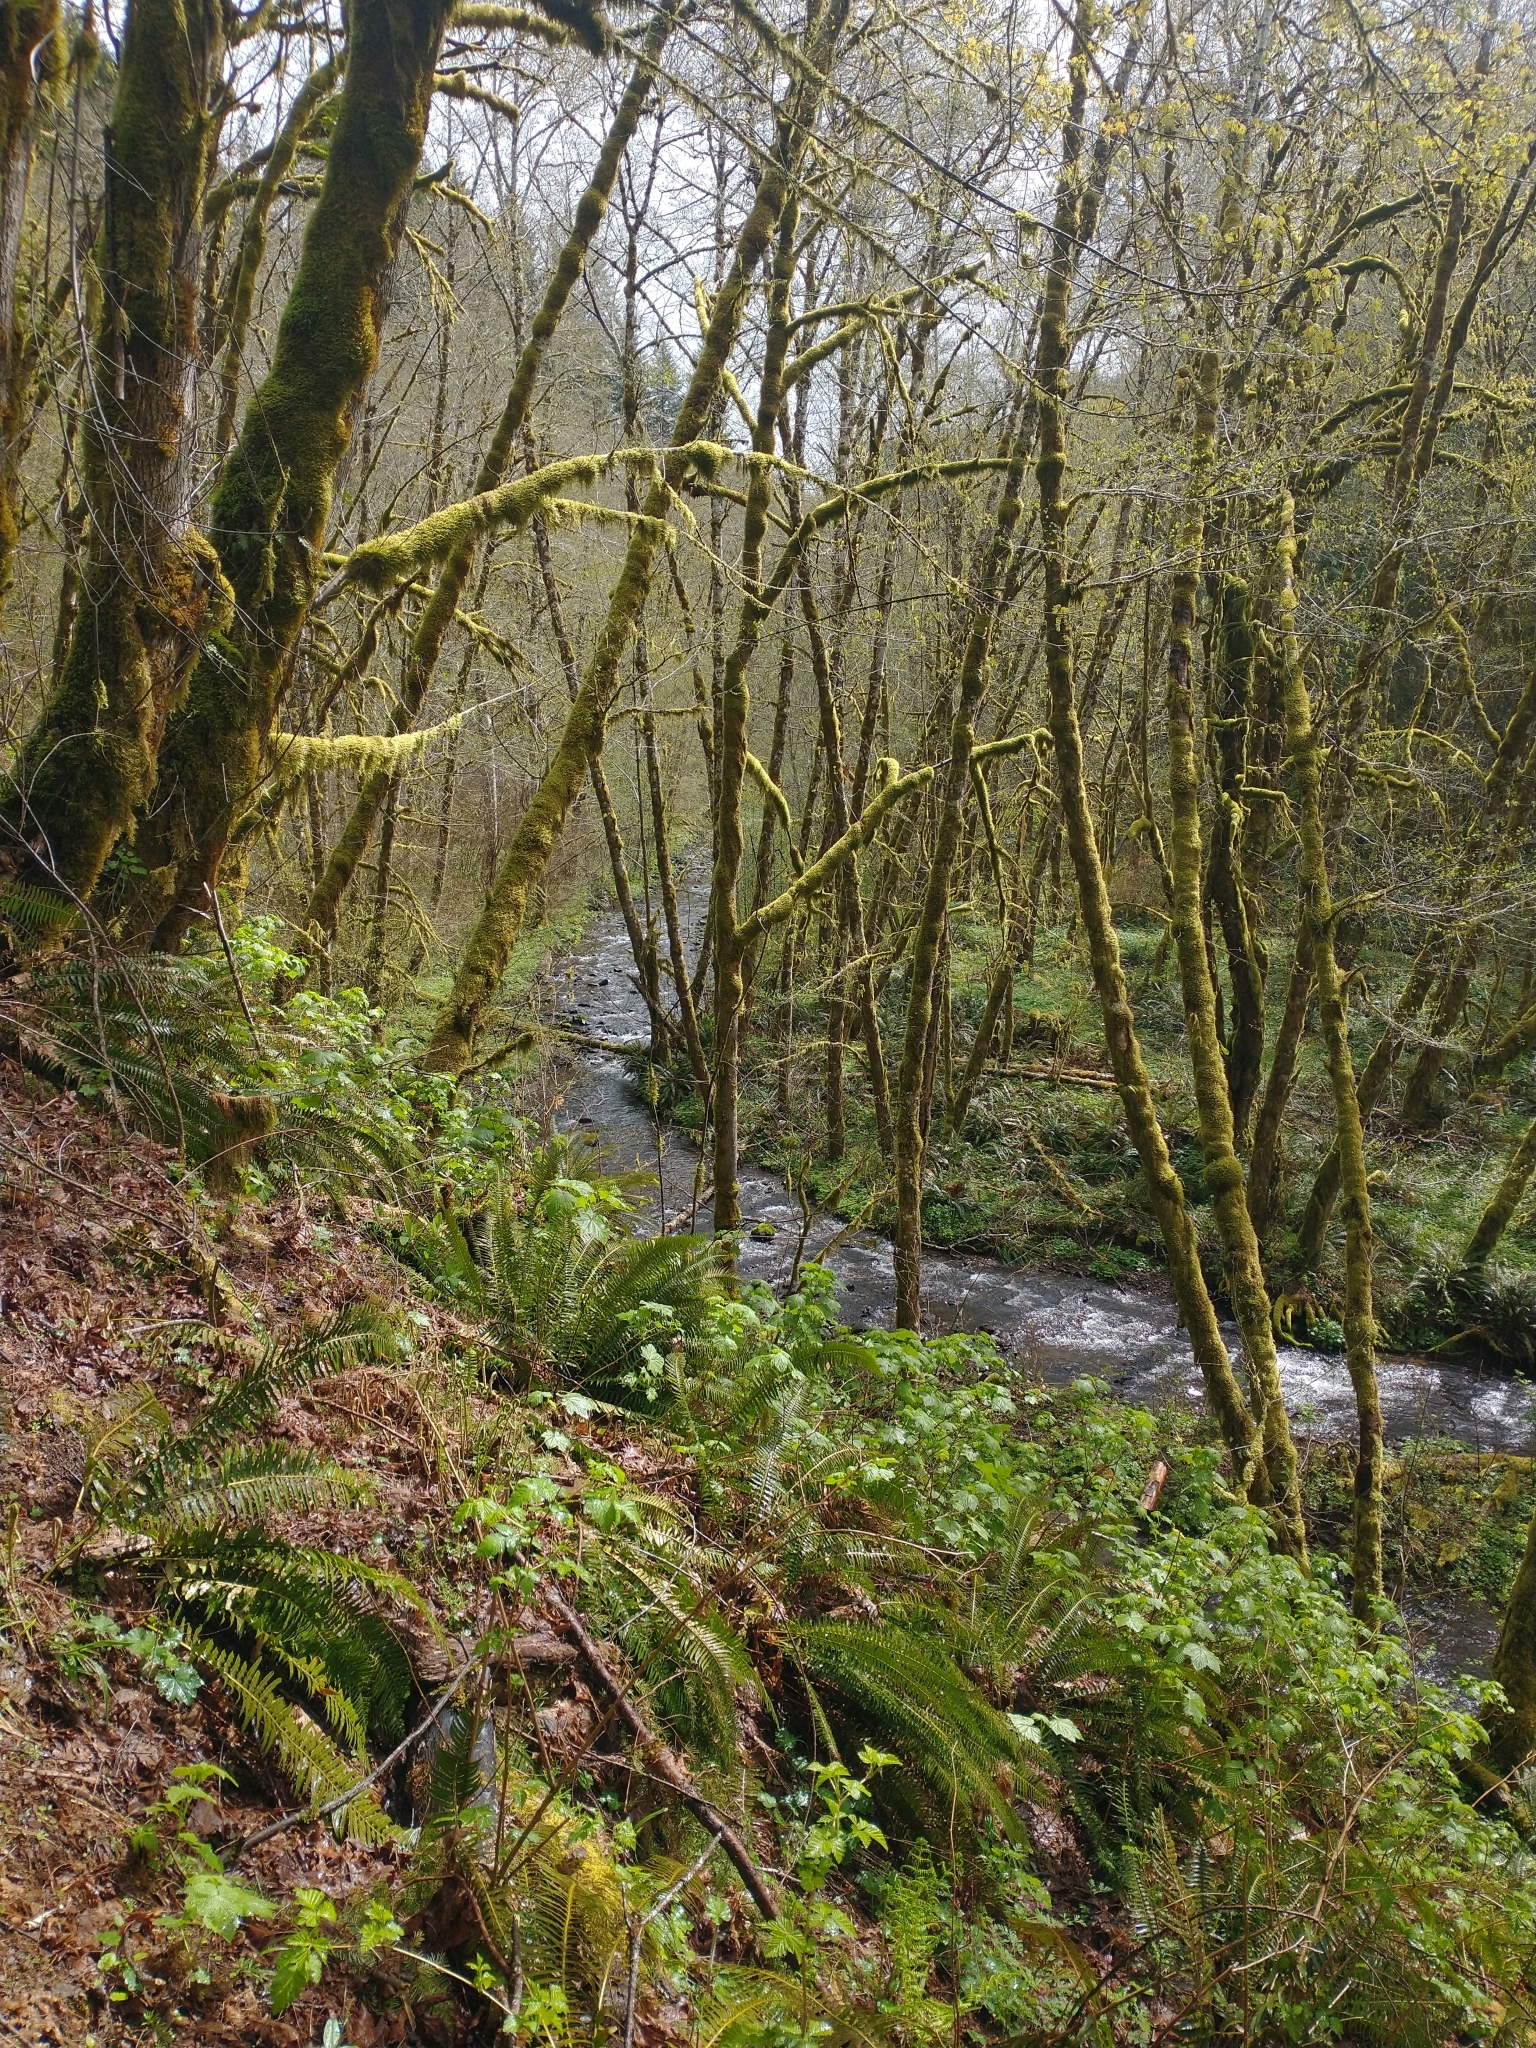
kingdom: Plantae
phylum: Tracheophyta
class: Polypodiopsida
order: Polypodiales
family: Dryopteridaceae
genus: Polystichum
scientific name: Polystichum munitum
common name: Western sword-fern
